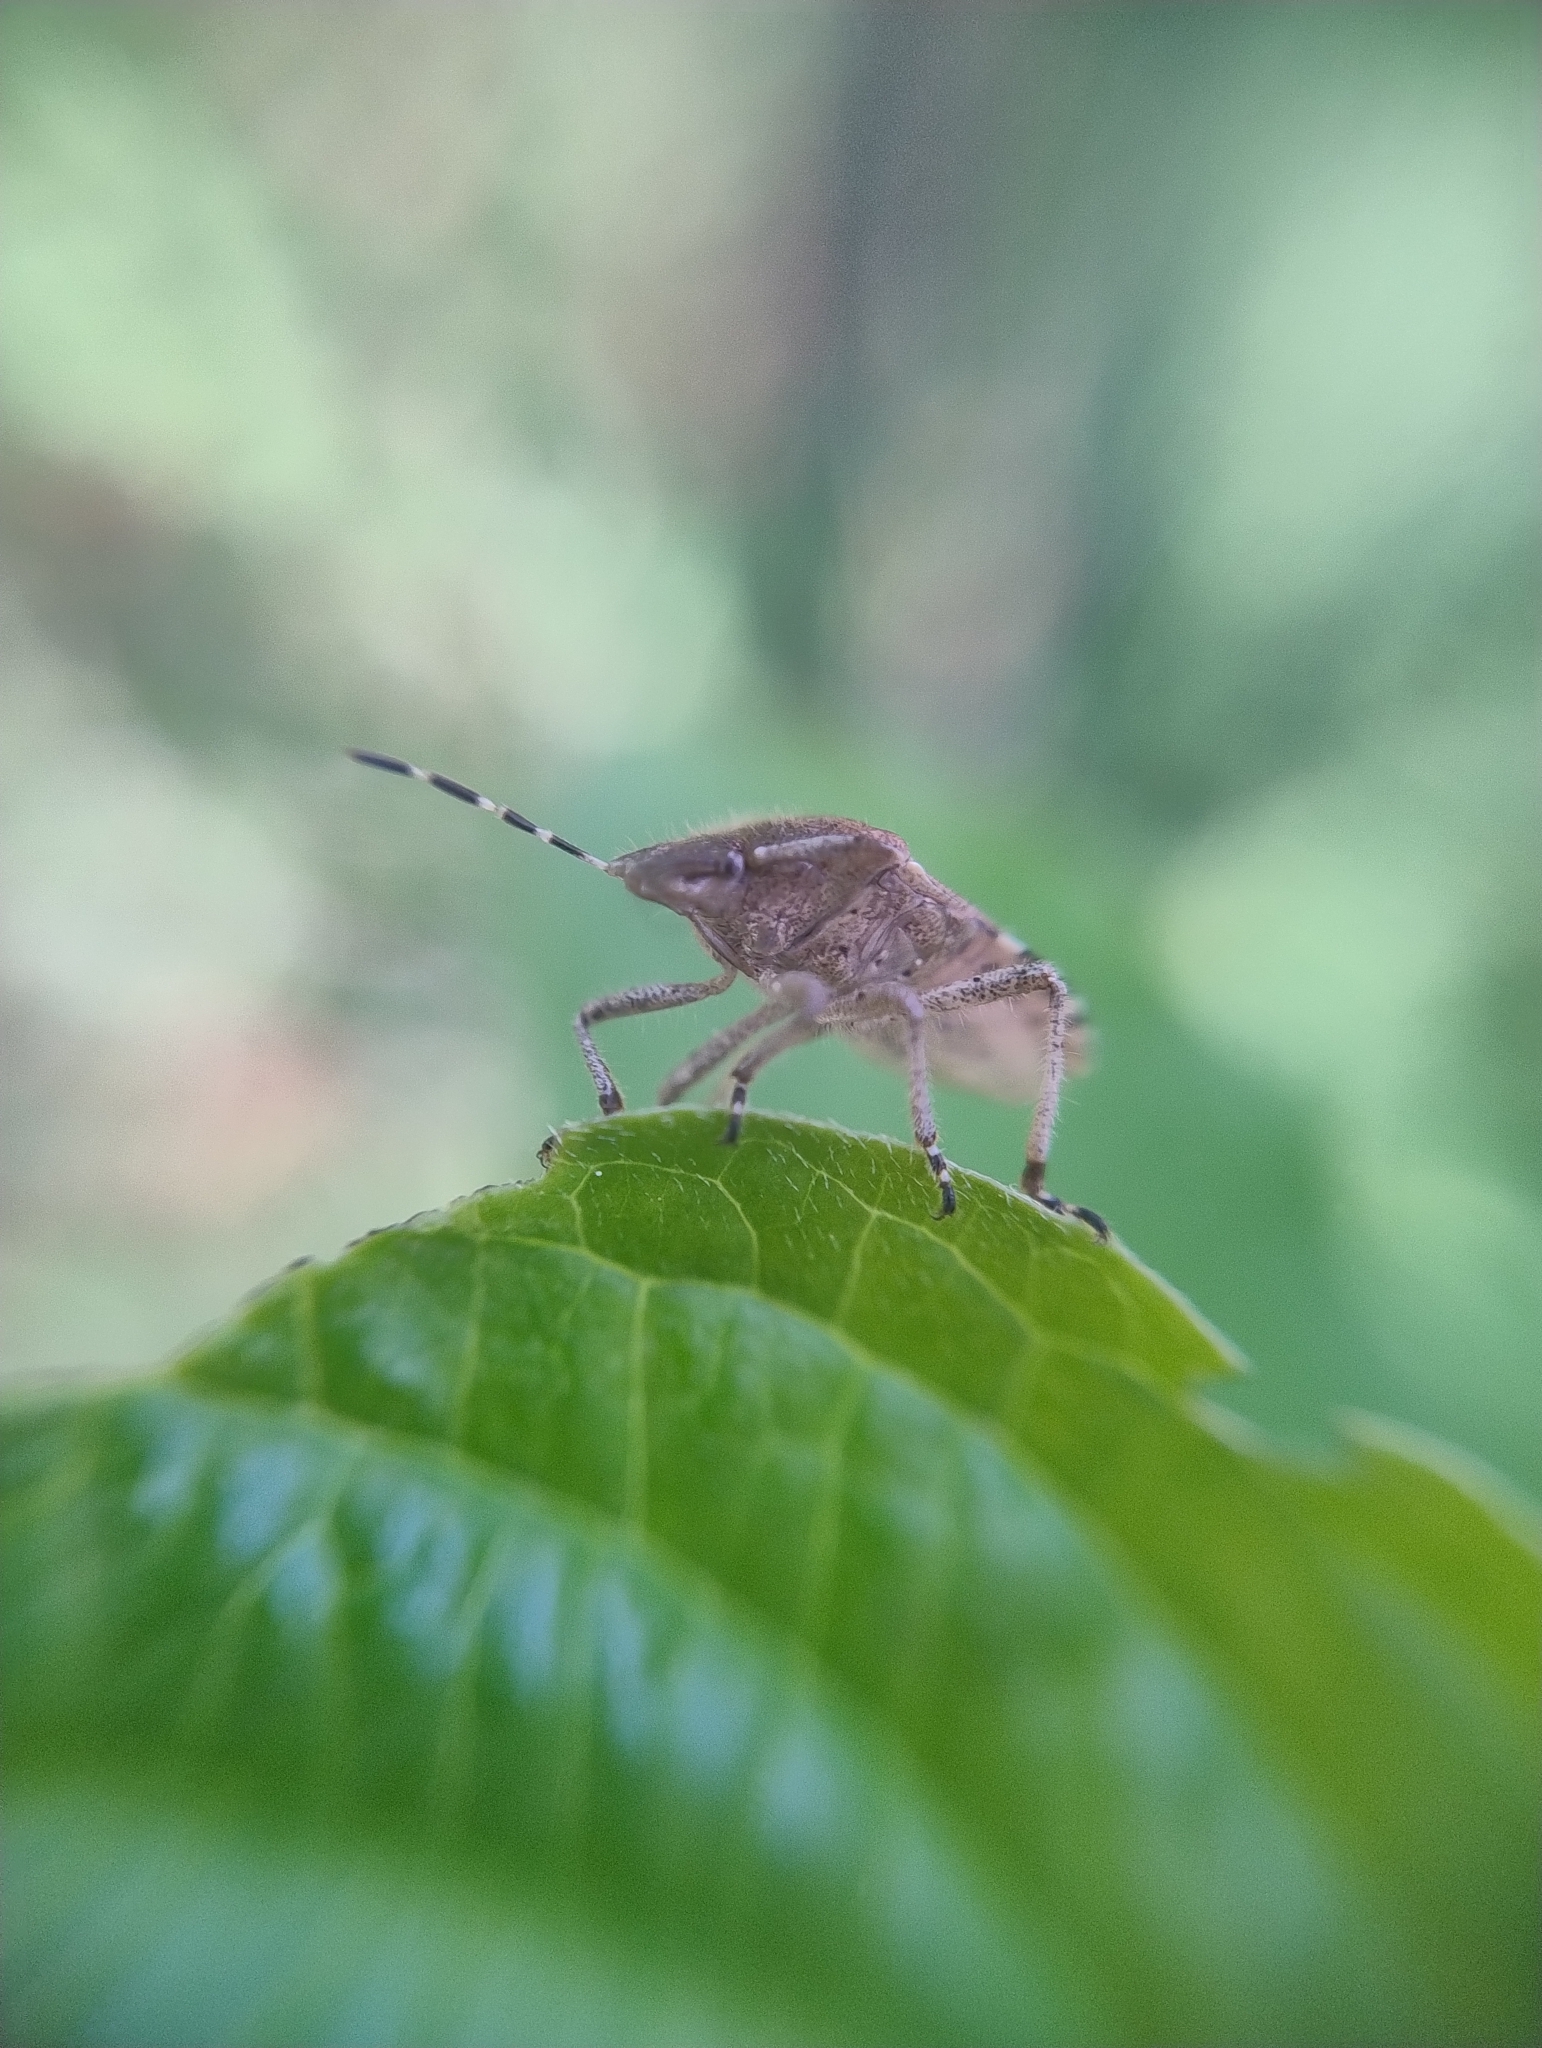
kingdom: Animalia
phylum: Arthropoda
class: Insecta
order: Hemiptera
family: Pentatomidae
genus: Dolycoris
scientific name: Dolycoris baccarum
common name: Sloe bug
